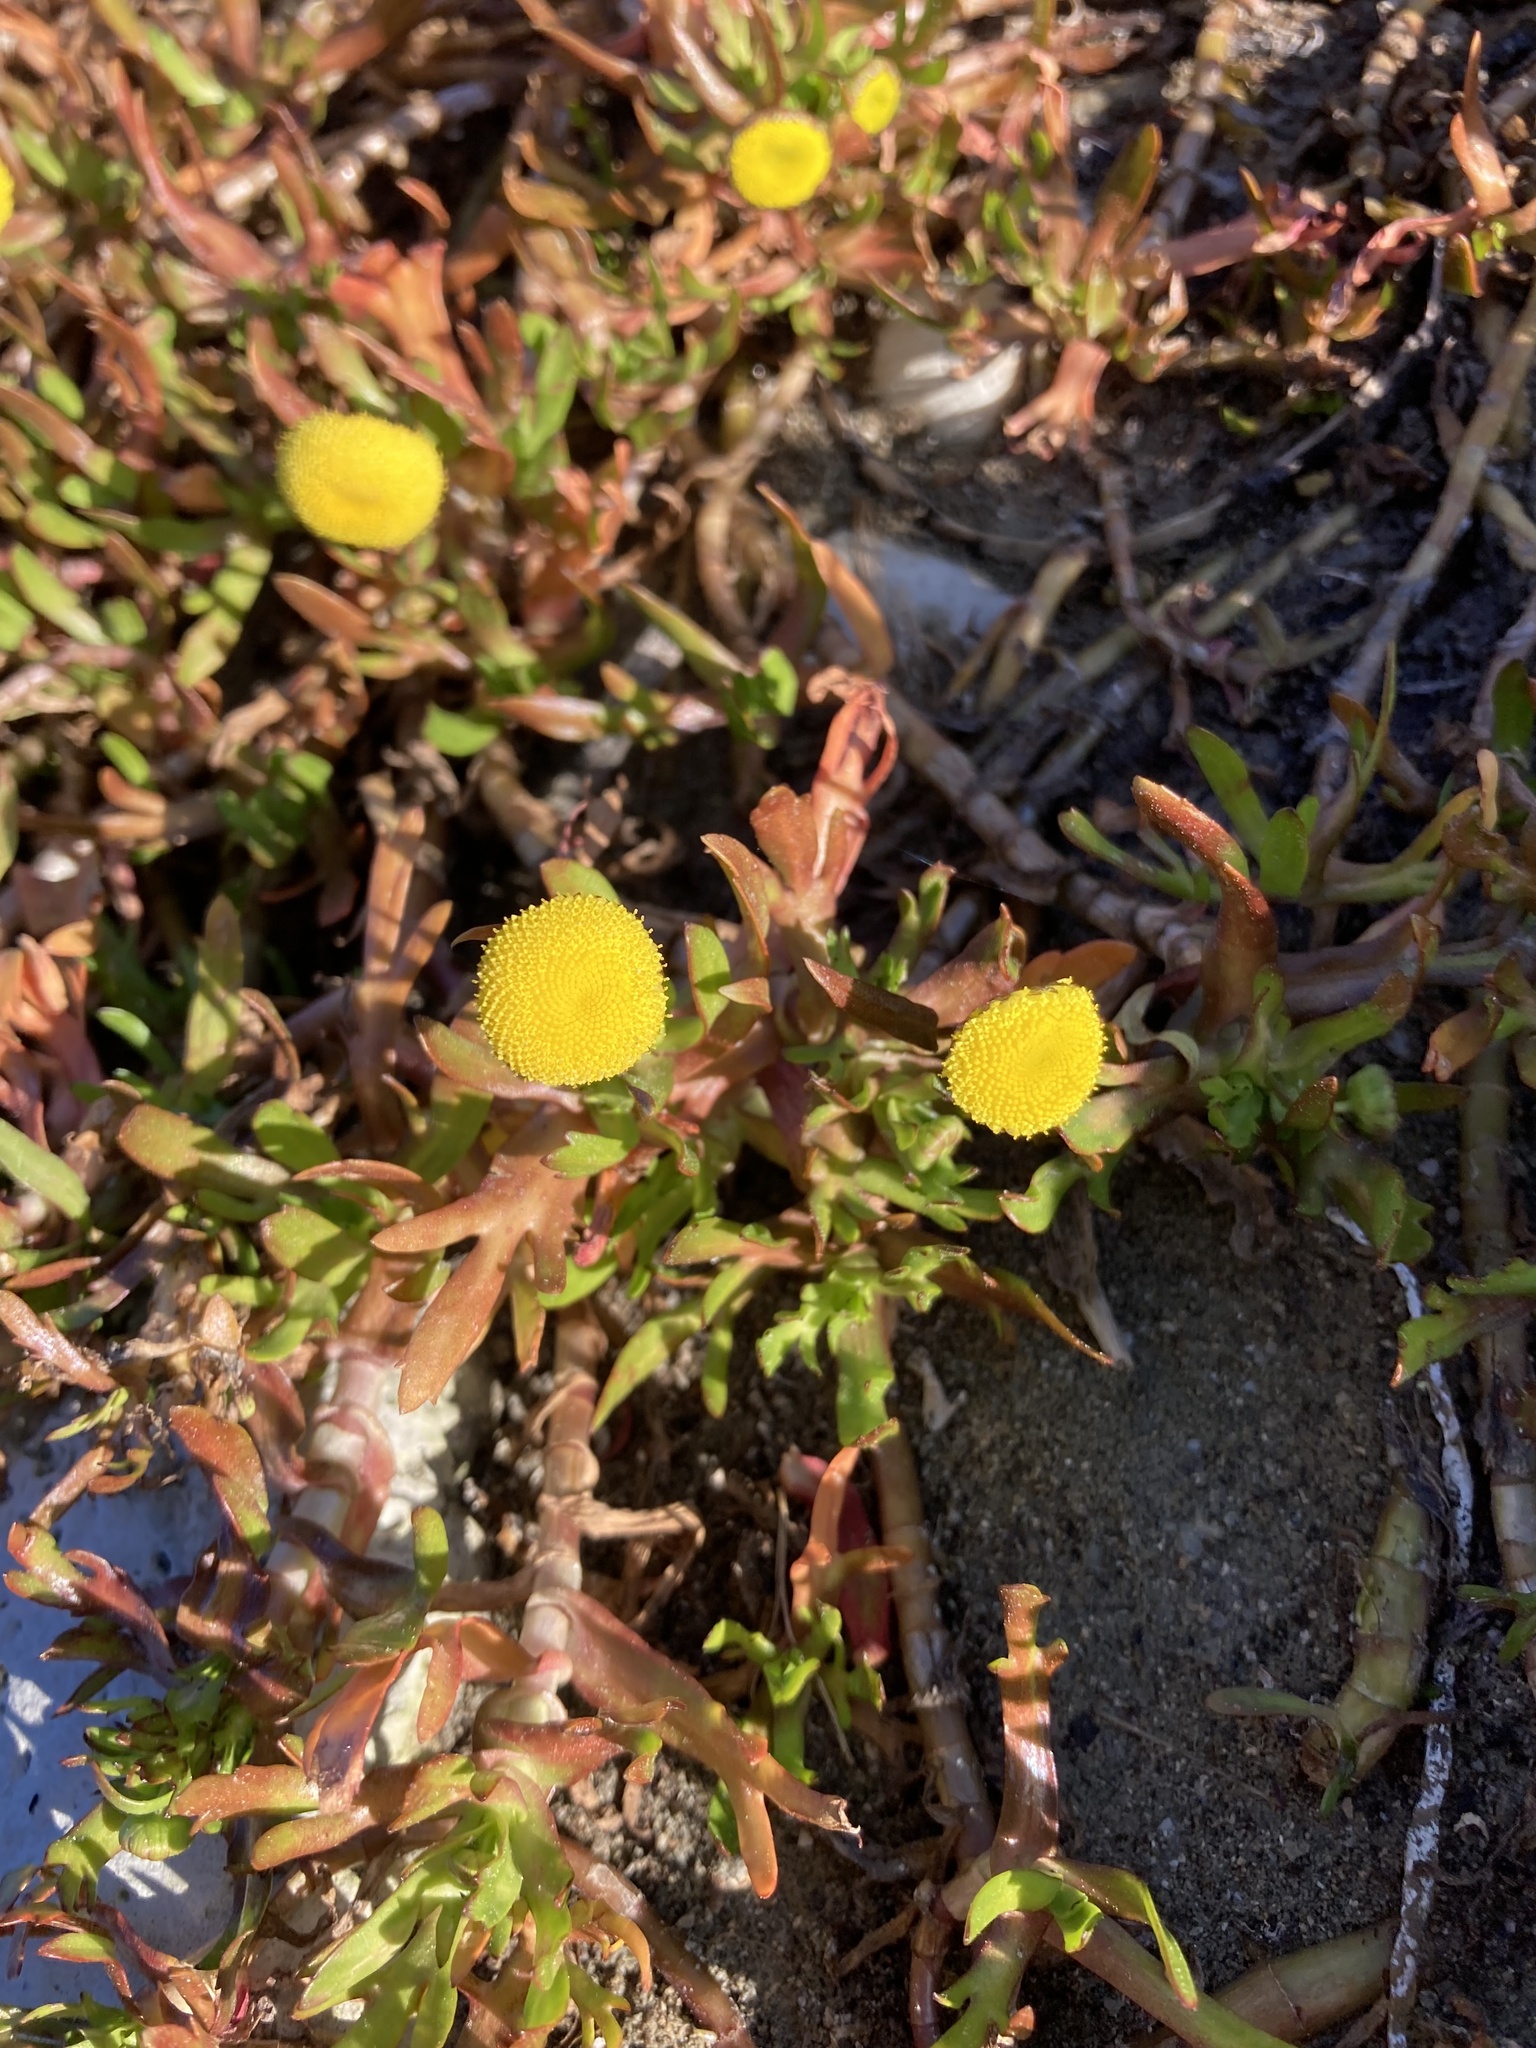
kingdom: Plantae
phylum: Tracheophyta
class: Magnoliopsida
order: Asterales
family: Asteraceae
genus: Cotula
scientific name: Cotula coronopifolia
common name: Buttonweed
